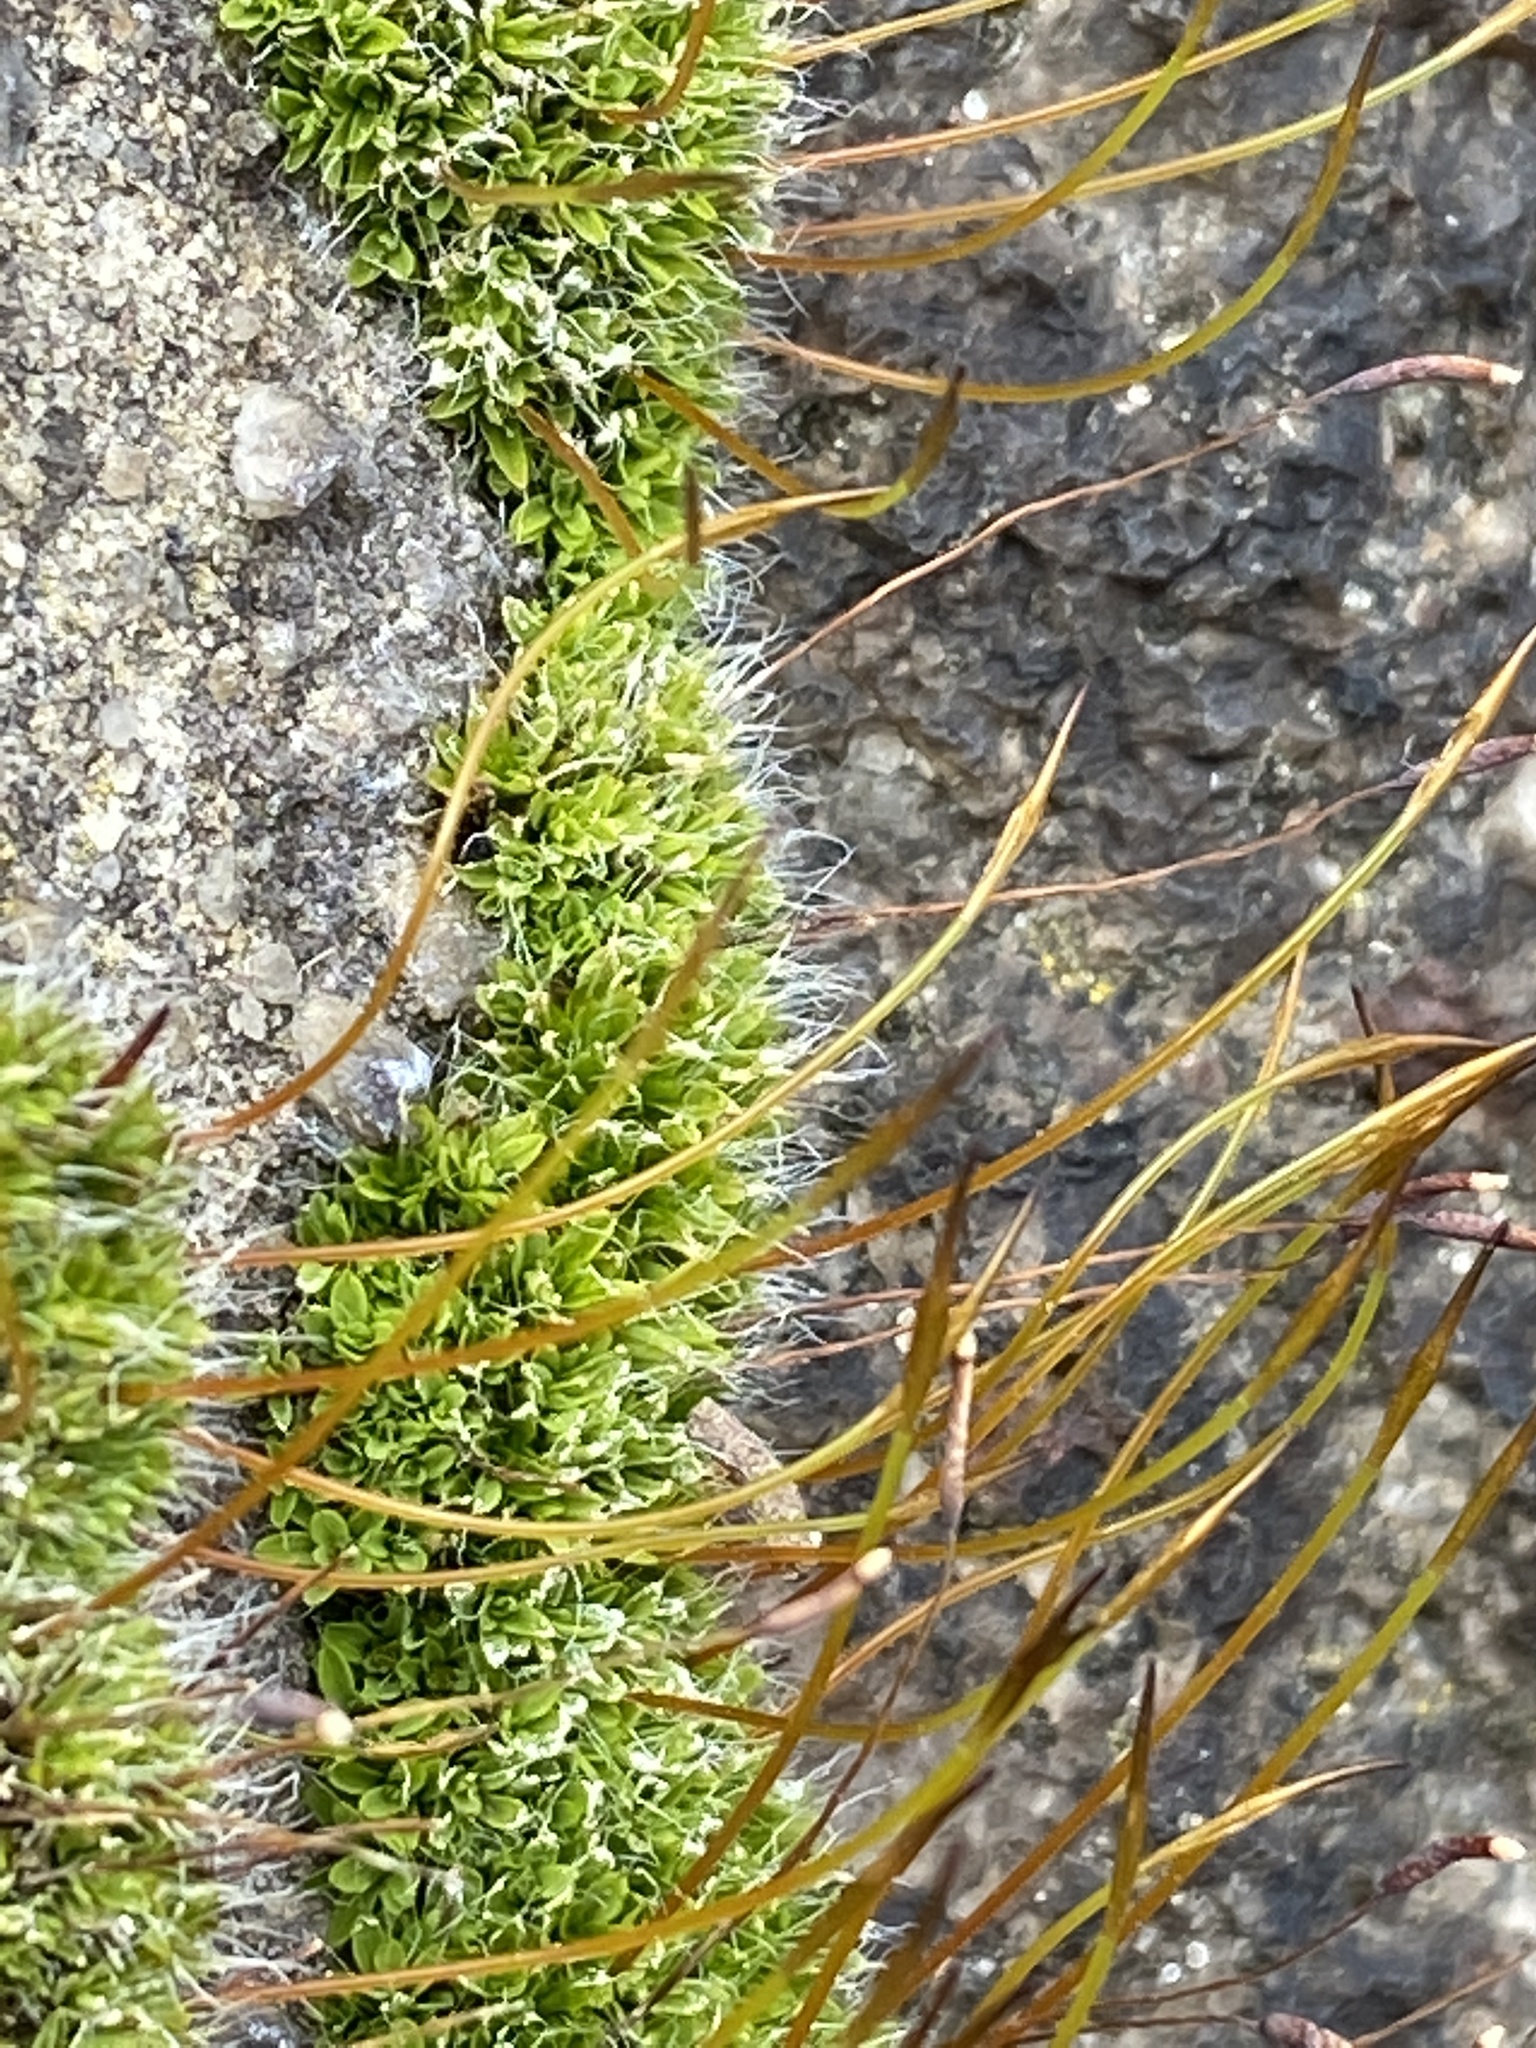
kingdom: Plantae
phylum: Bryophyta
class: Bryopsida
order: Pottiales
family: Pottiaceae
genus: Tortula
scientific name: Tortula muralis
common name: Wall screw-moss
